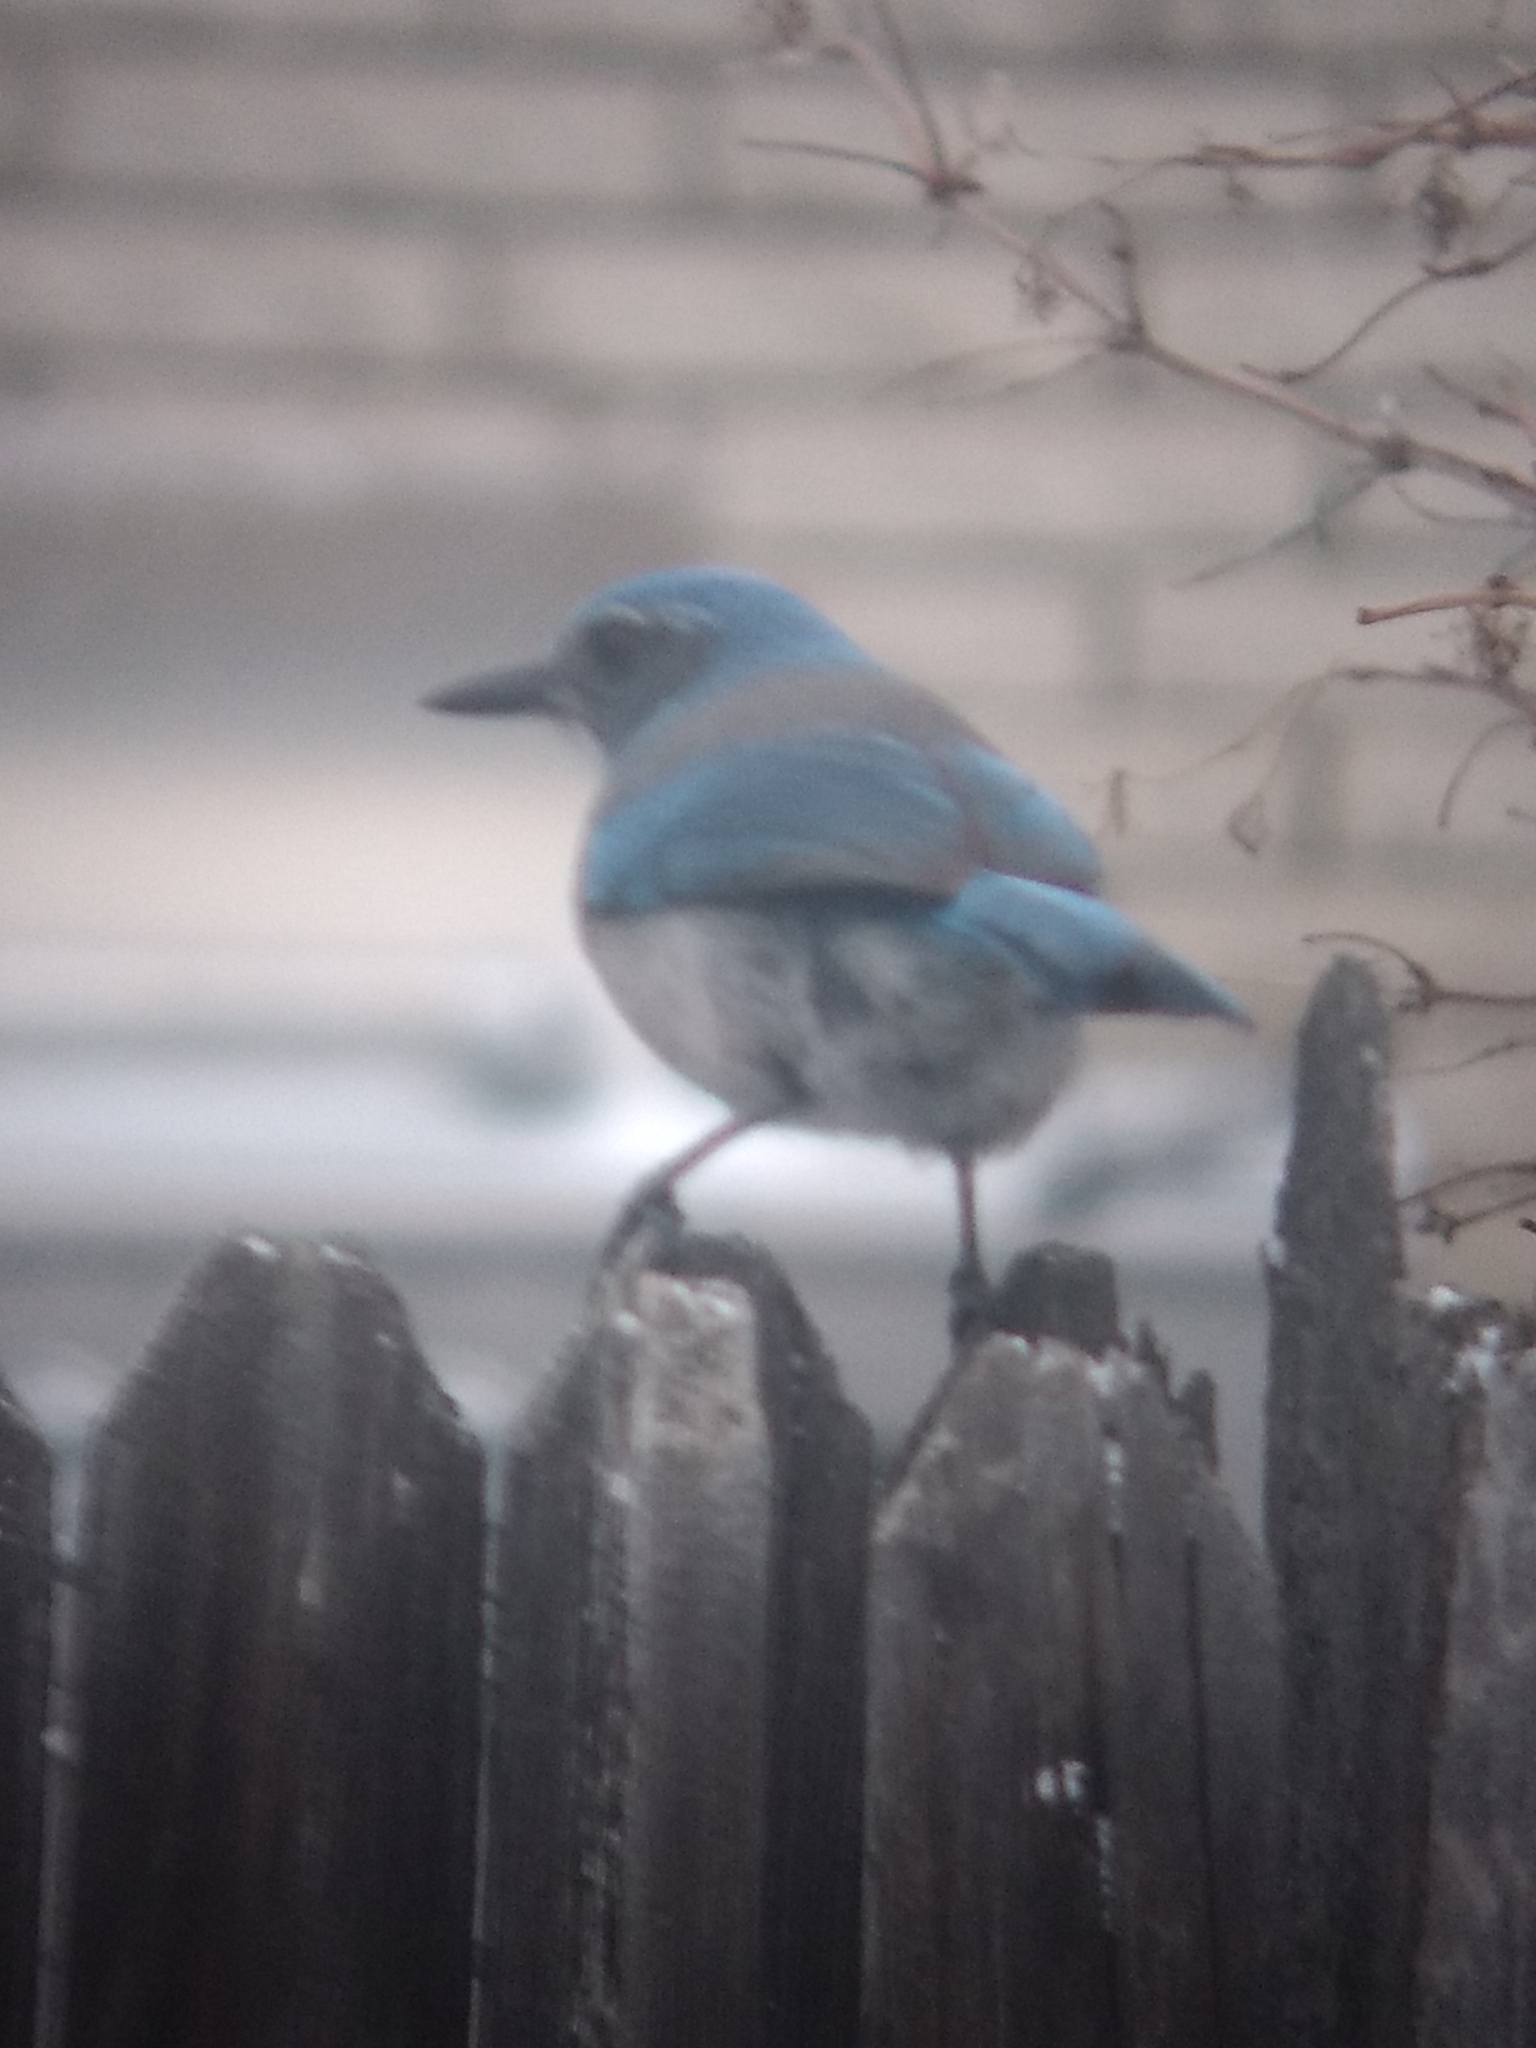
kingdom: Animalia
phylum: Chordata
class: Aves
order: Passeriformes
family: Corvidae
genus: Aphelocoma
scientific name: Aphelocoma woodhouseii
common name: Woodhouse's scrub-jay
